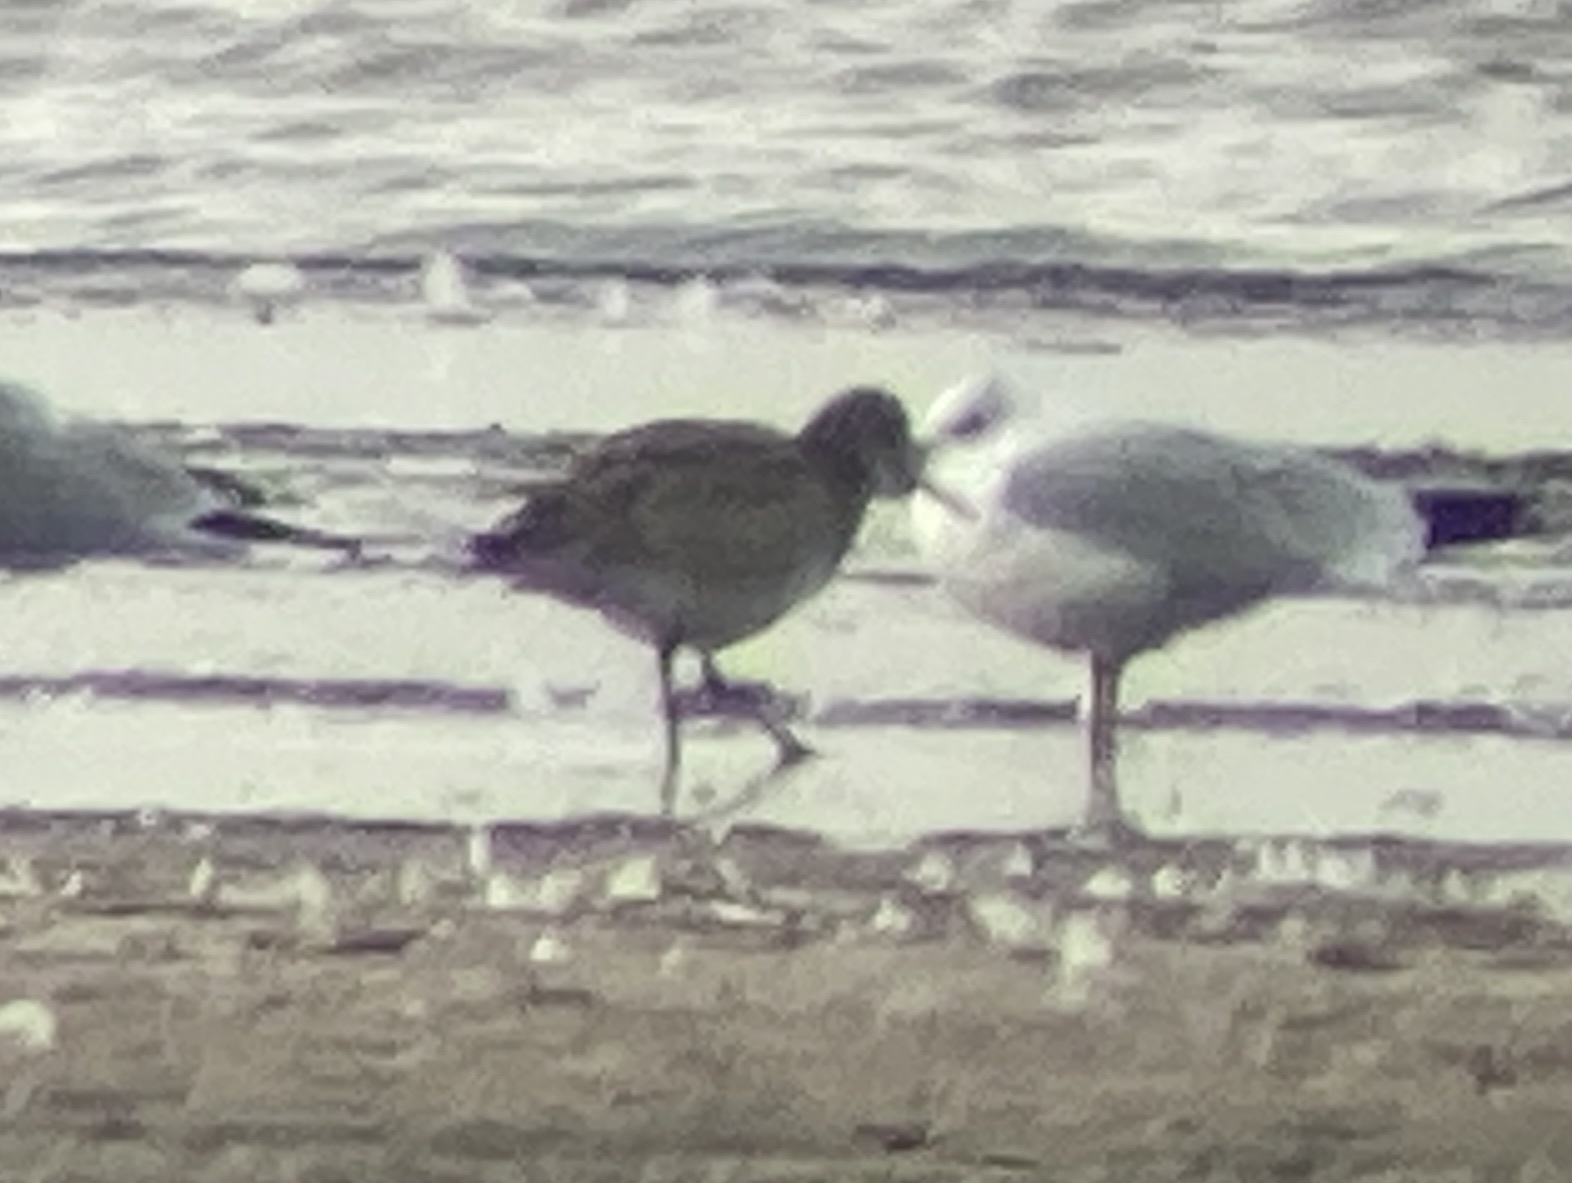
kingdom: Animalia
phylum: Chordata
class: Aves
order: Charadriiformes
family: Scolopacidae
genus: Tringa
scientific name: Tringa semipalmata
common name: Willet
